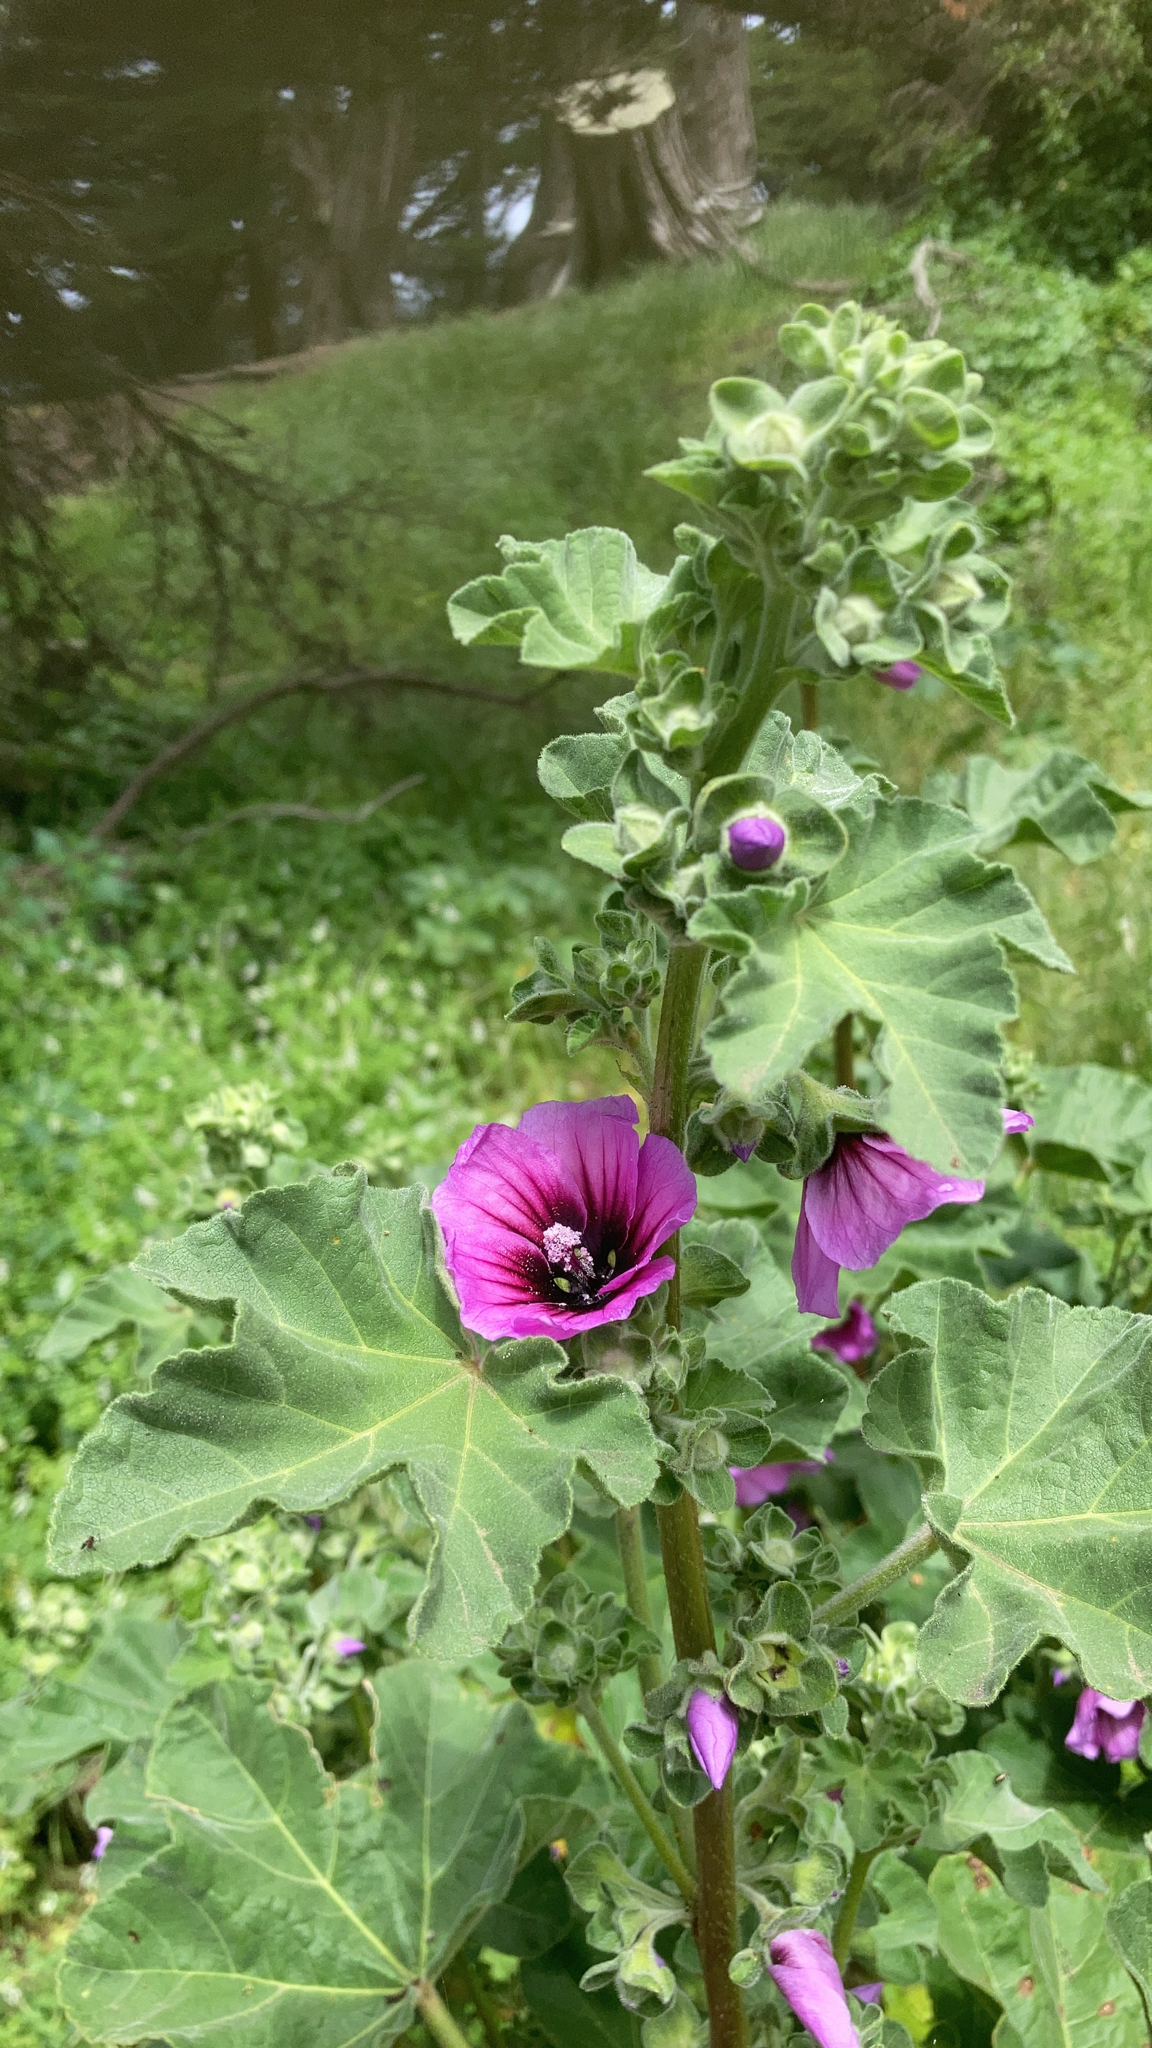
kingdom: Plantae
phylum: Tracheophyta
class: Magnoliopsida
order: Malvales
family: Malvaceae
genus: Malva
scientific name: Malva arborea
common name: Tree mallow
